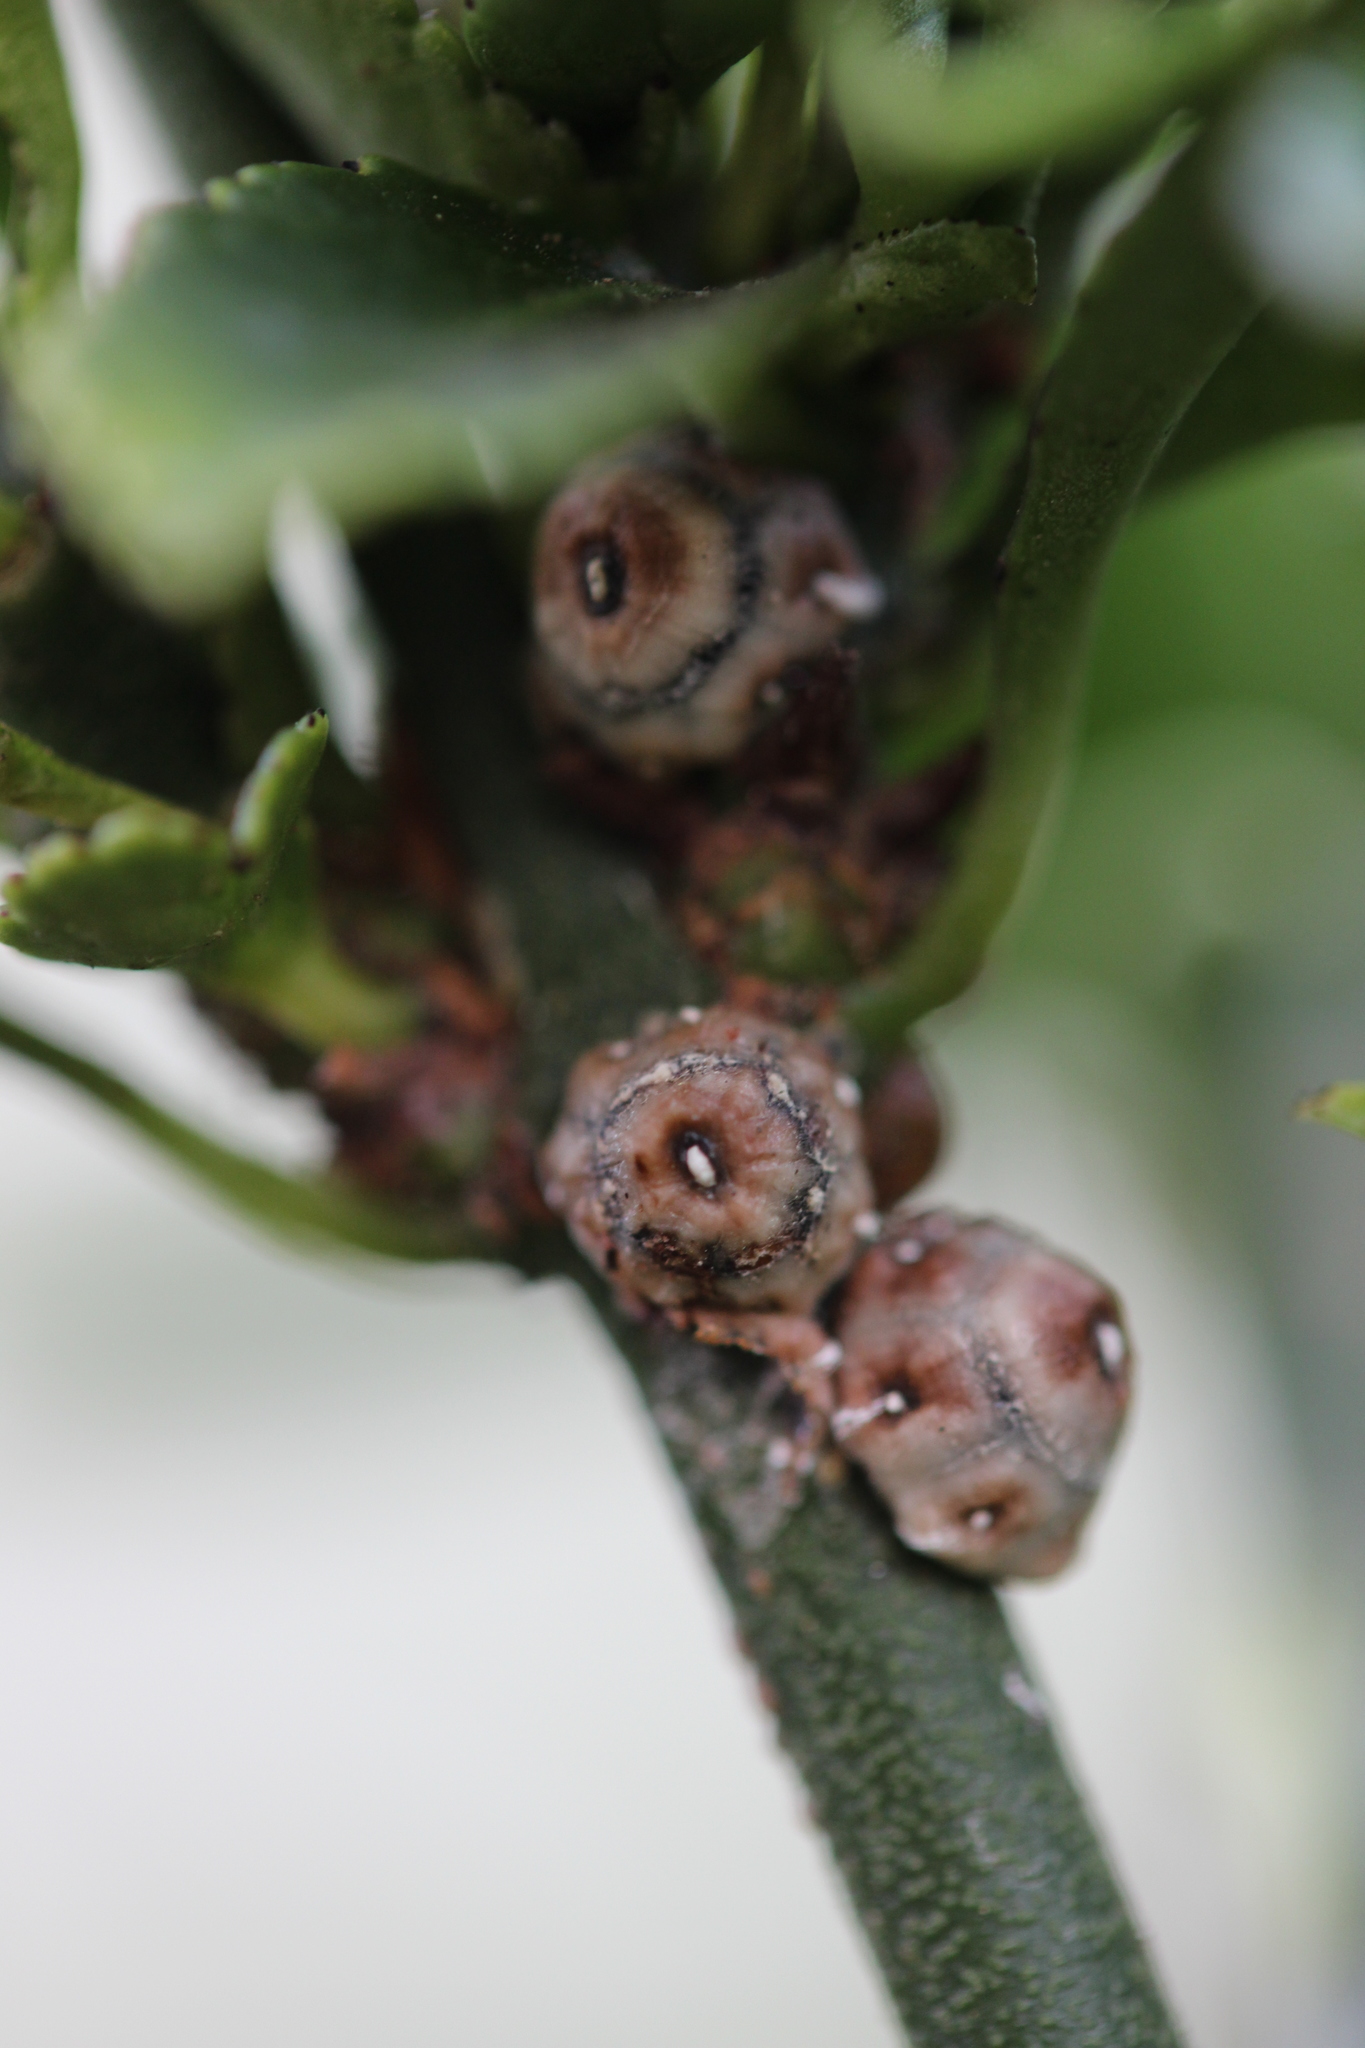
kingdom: Animalia
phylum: Arthropoda
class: Insecta
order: Hemiptera
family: Coccidae
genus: Ceroplastes
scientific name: Ceroplastes sinensis
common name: Hard wax scale
